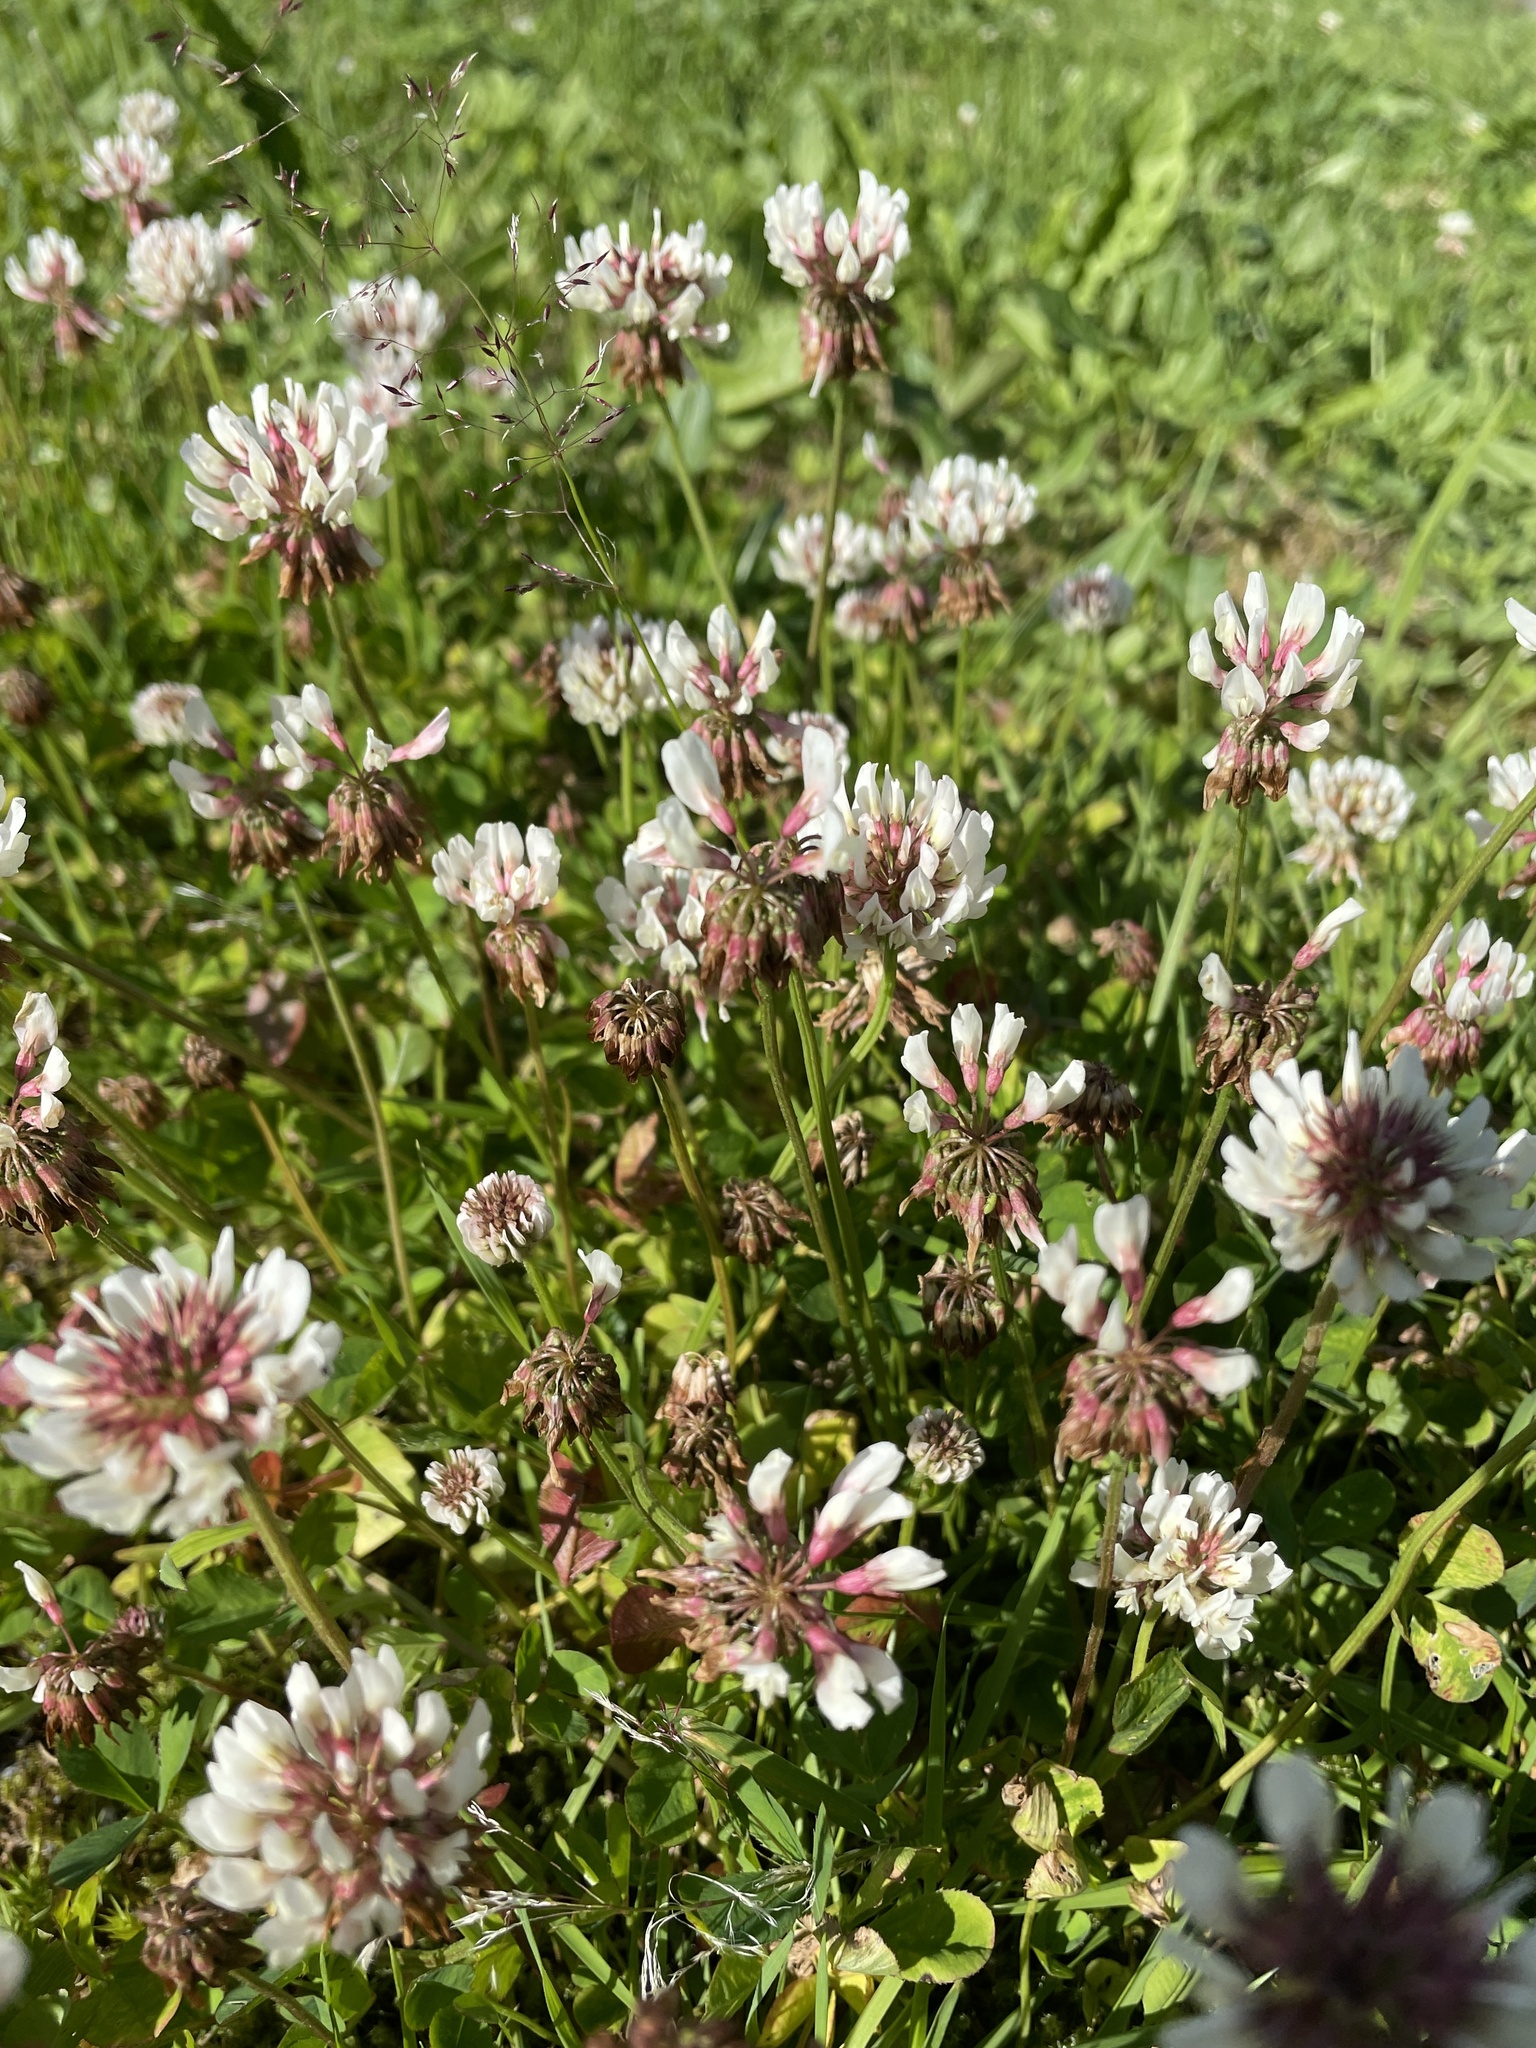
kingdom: Plantae
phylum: Tracheophyta
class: Magnoliopsida
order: Fabales
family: Fabaceae
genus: Trifolium
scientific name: Trifolium repens
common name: White clover
